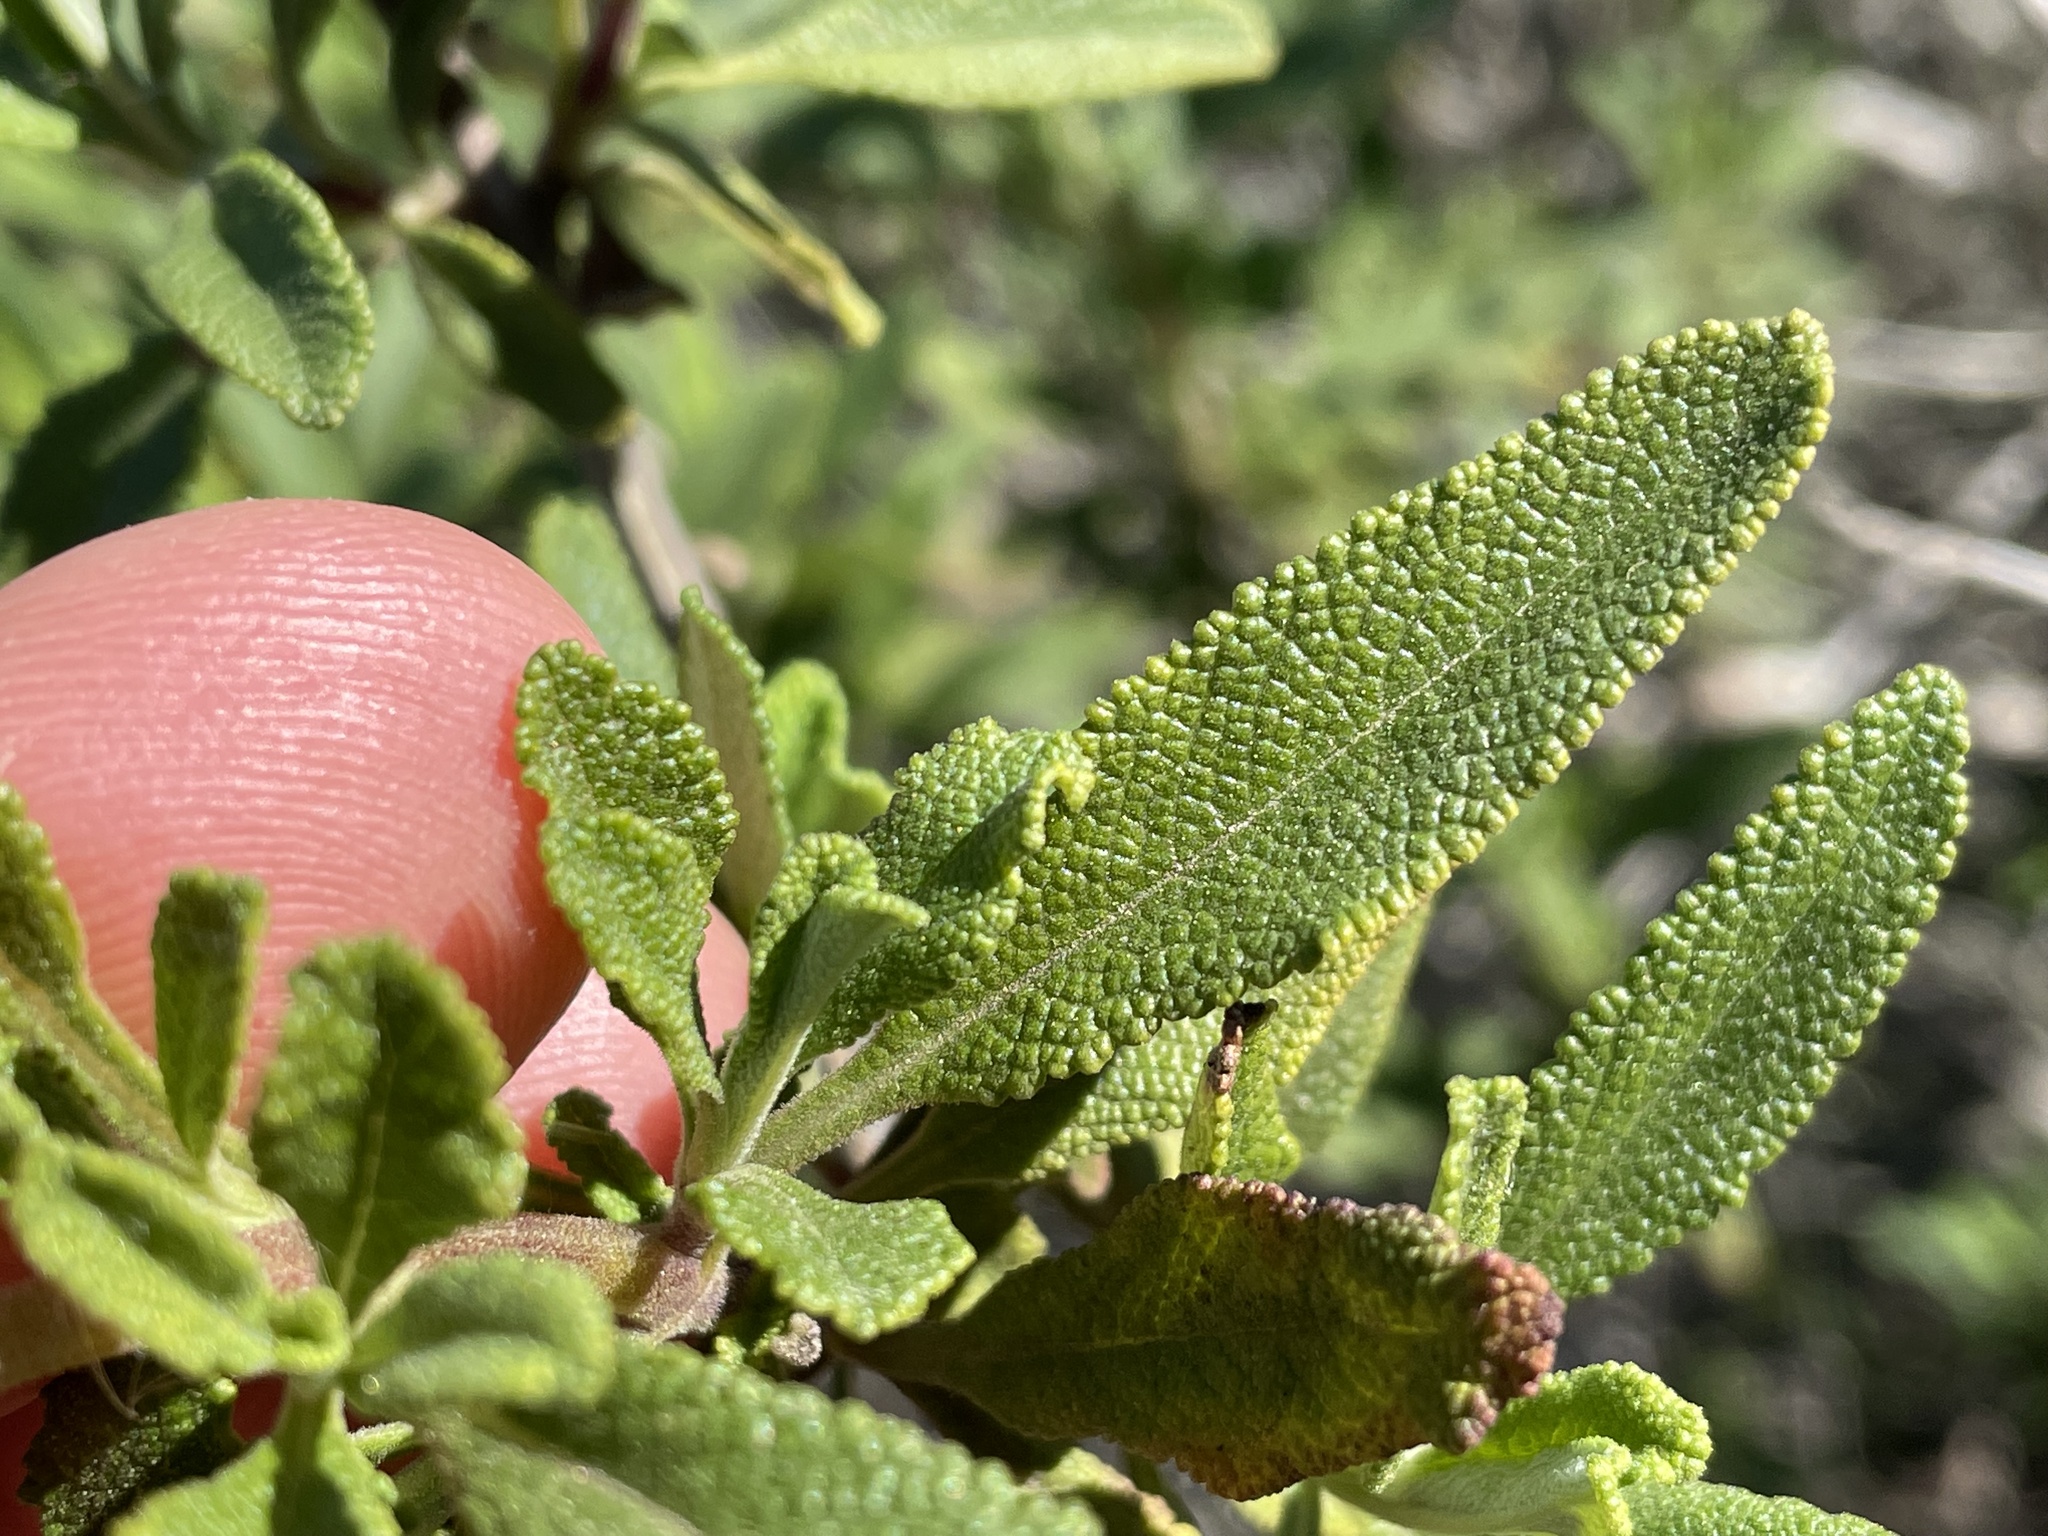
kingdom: Plantae
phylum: Tracheophyta
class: Magnoliopsida
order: Lamiales
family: Lamiaceae
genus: Salvia
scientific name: Salvia mellifera
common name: Black sage
